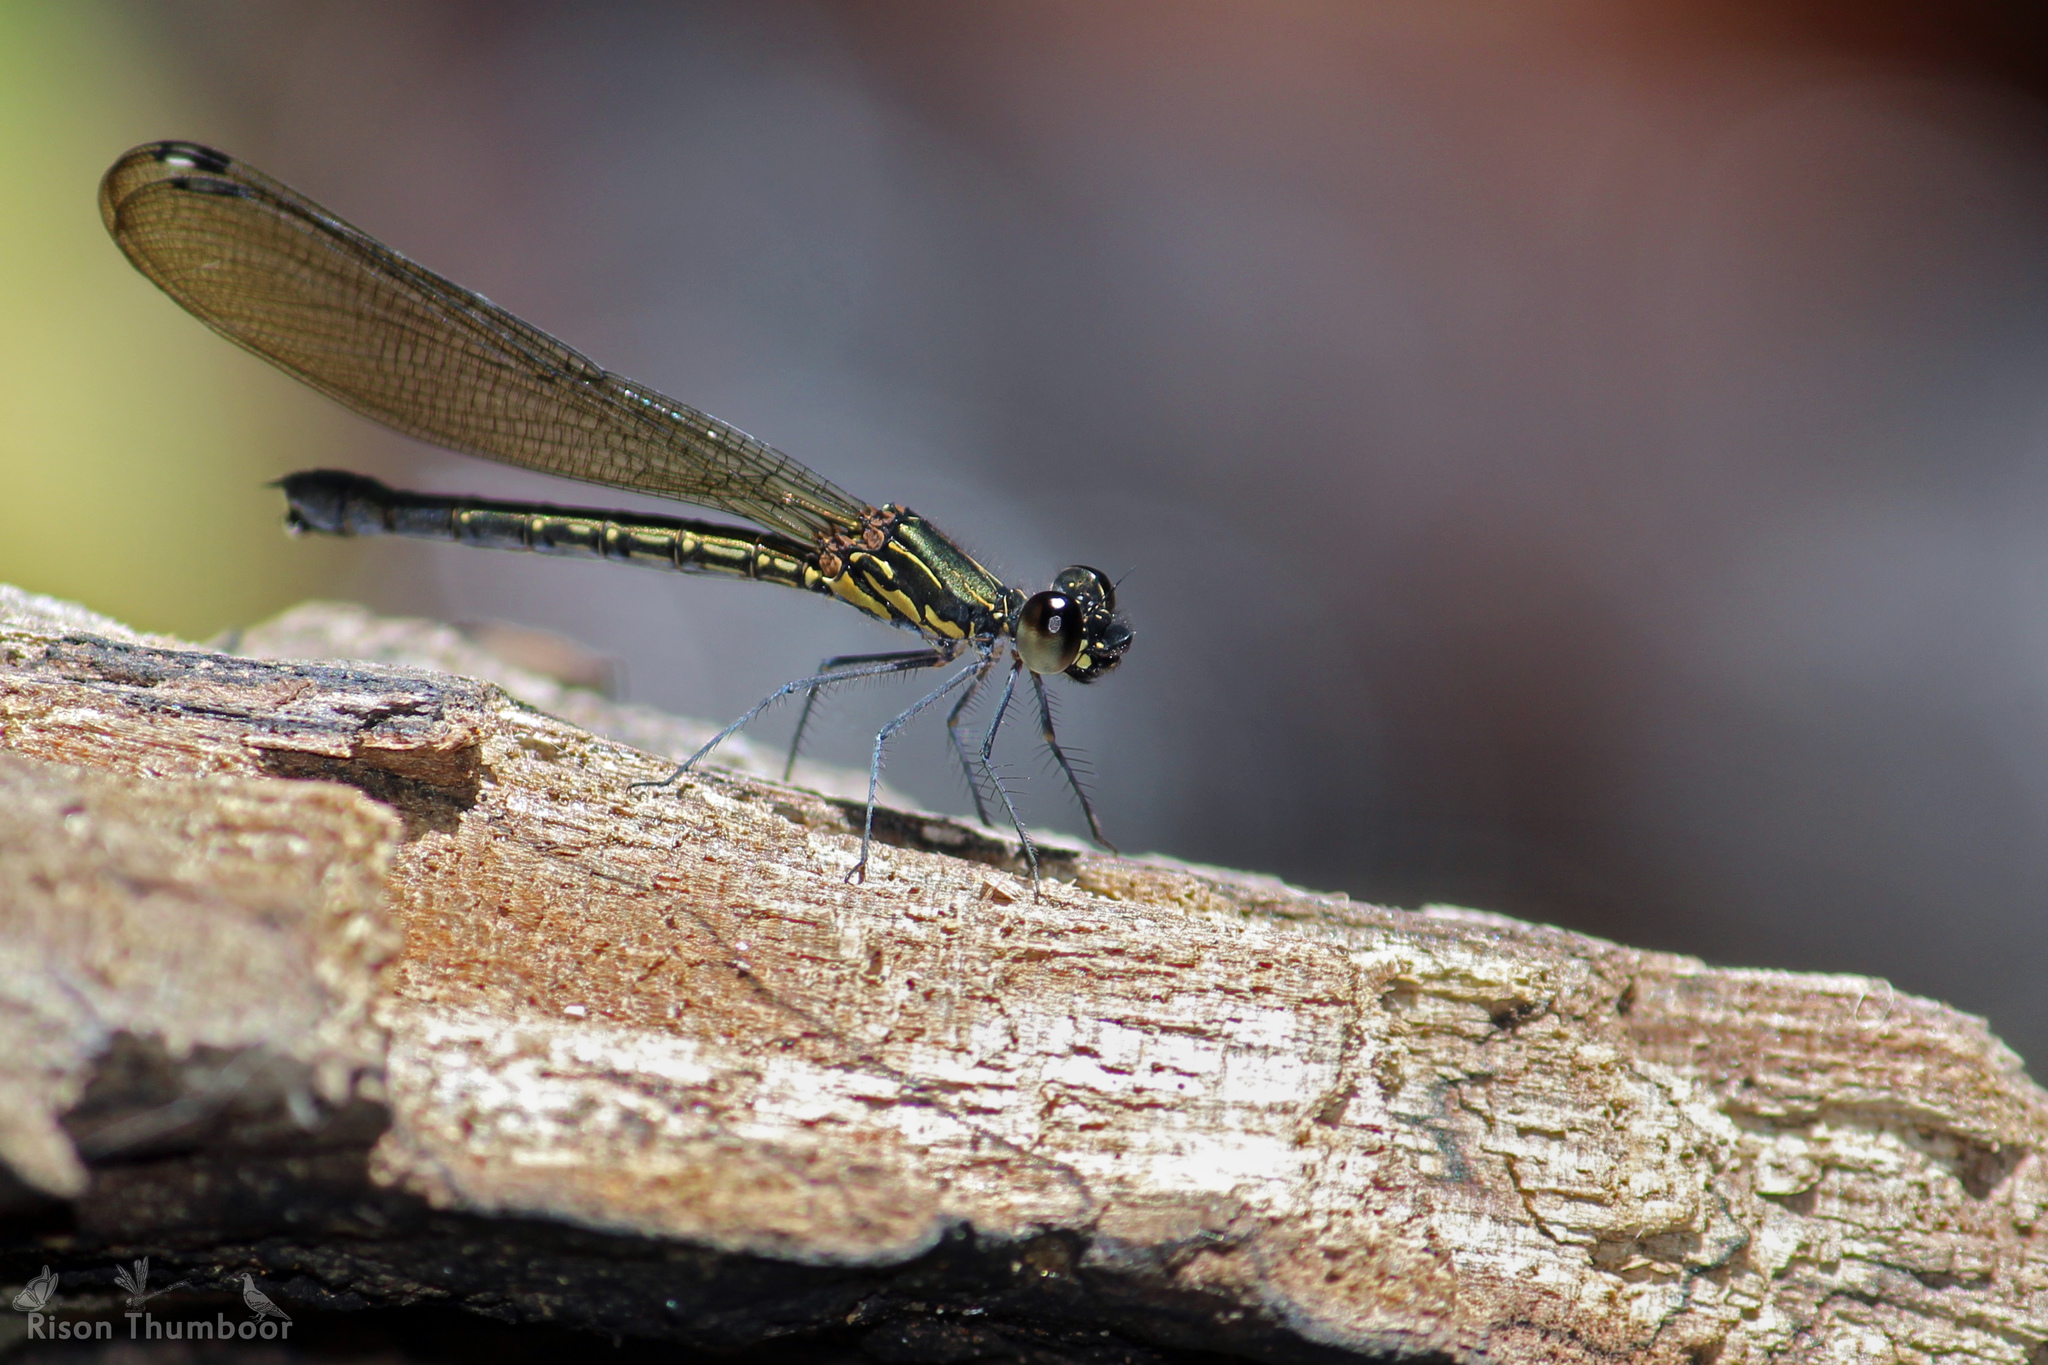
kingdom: Animalia
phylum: Arthropoda
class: Insecta
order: Odonata
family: Chlorocyphidae
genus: Heliocypha
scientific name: Heliocypha bisignata
